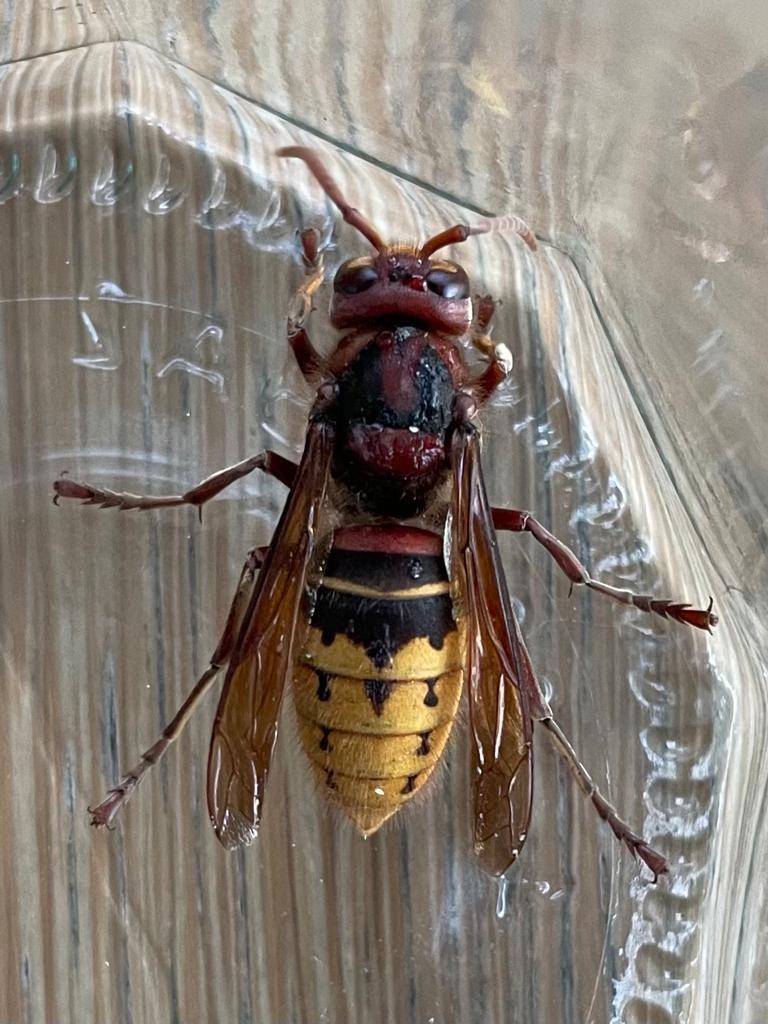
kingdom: Animalia
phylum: Arthropoda
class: Insecta
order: Hymenoptera
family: Vespidae
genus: Vespa
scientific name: Vespa crabro
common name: Hornet
